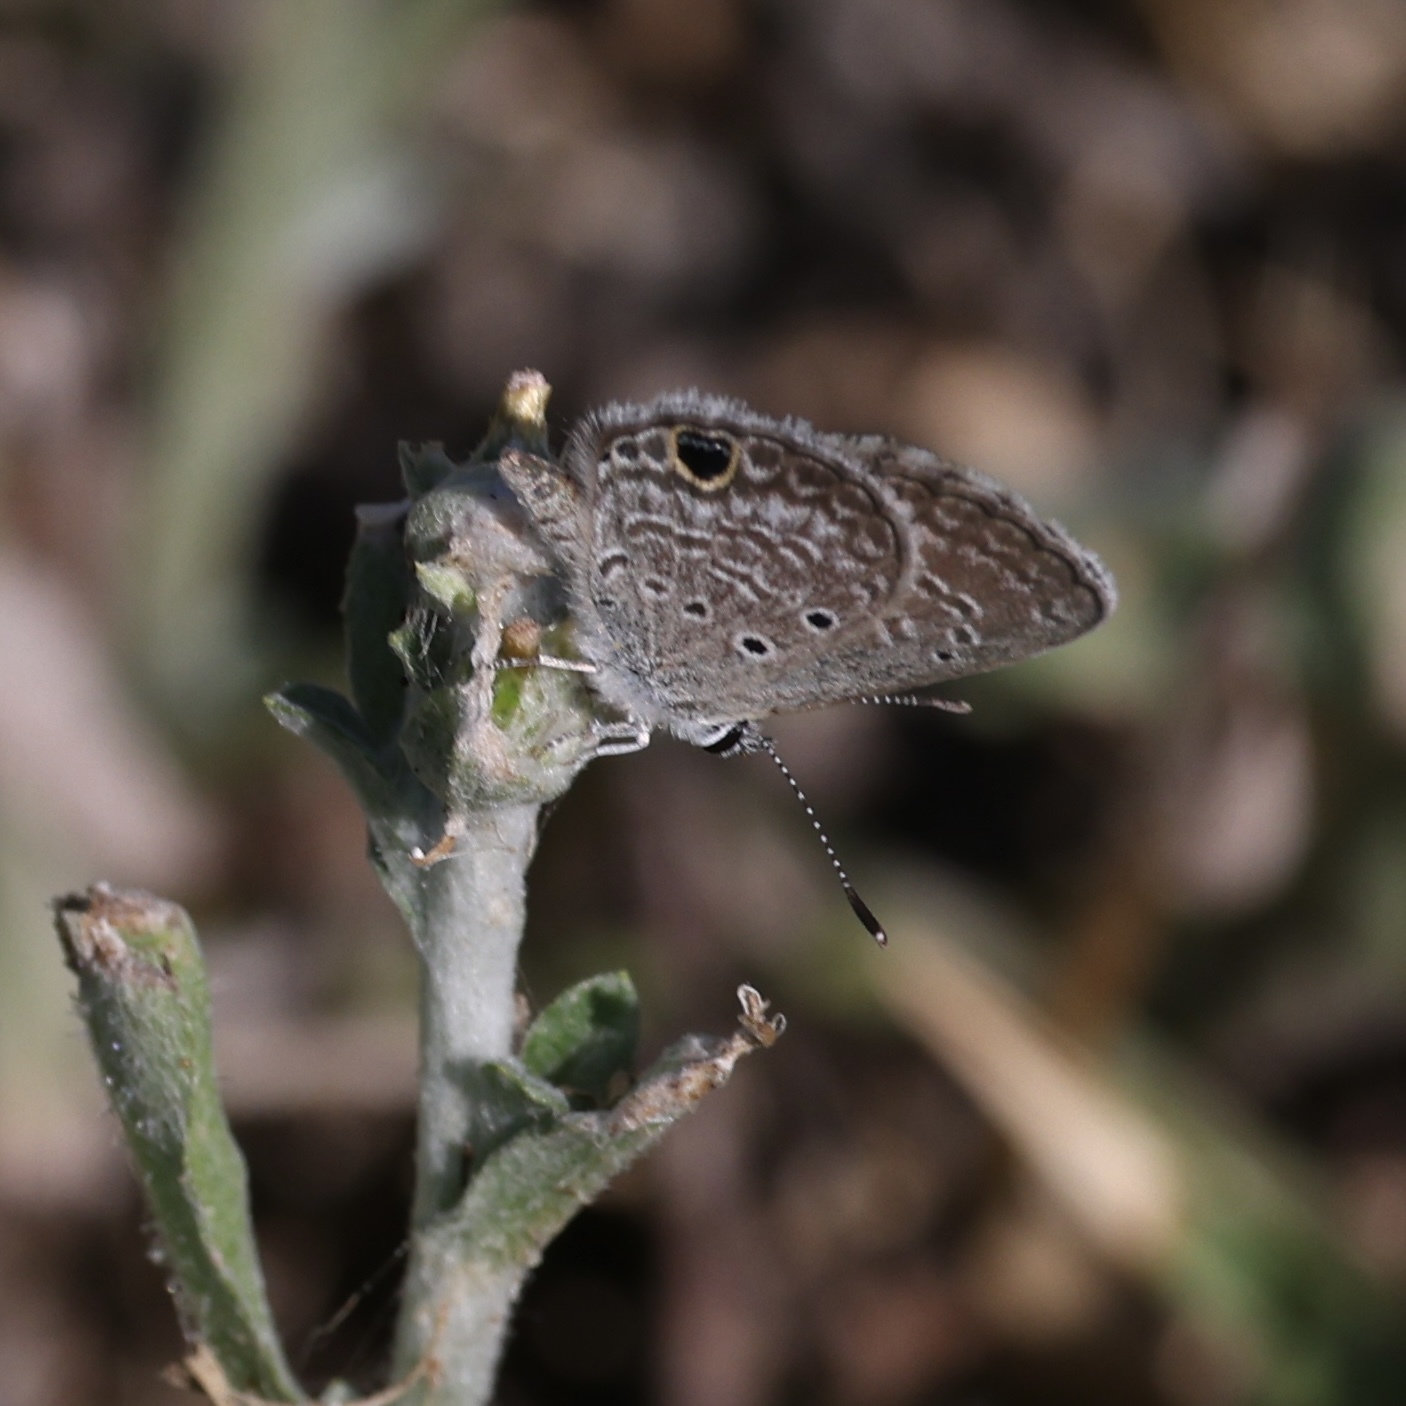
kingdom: Animalia
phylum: Arthropoda
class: Insecta
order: Lepidoptera
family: Lycaenidae
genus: Hemiargus
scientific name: Hemiargus ceraunus
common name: Ceraunus blue
